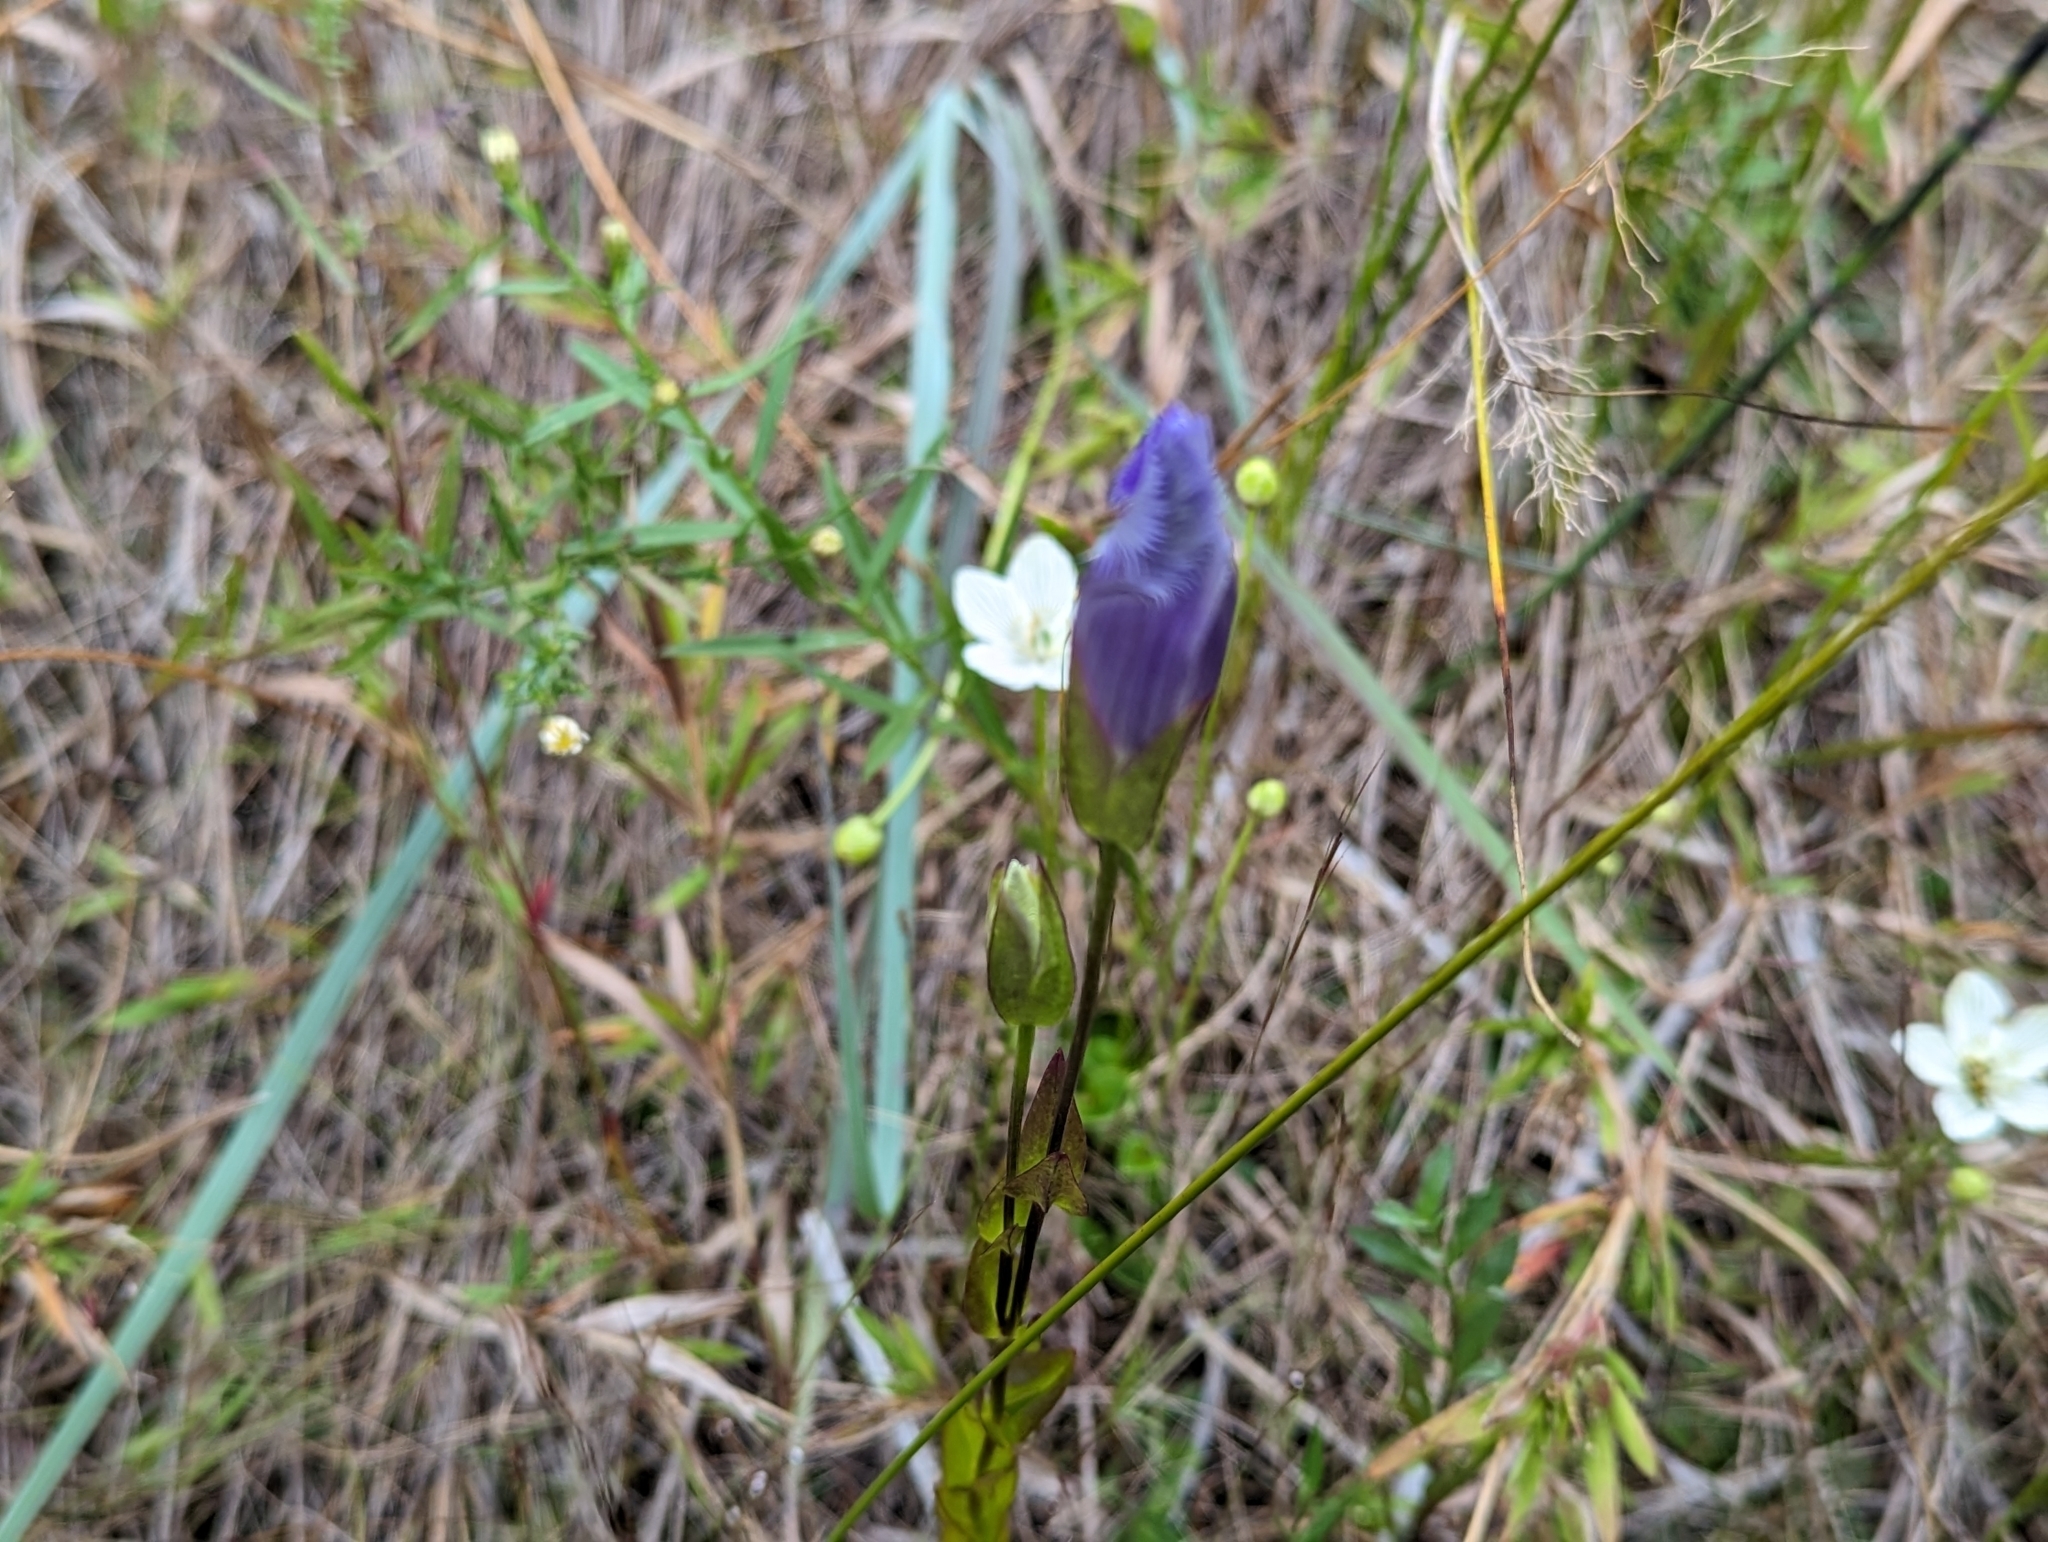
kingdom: Plantae
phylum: Tracheophyta
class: Magnoliopsida
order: Gentianales
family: Gentianaceae
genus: Gentianopsis
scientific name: Gentianopsis crinita
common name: Fringed-gentian
